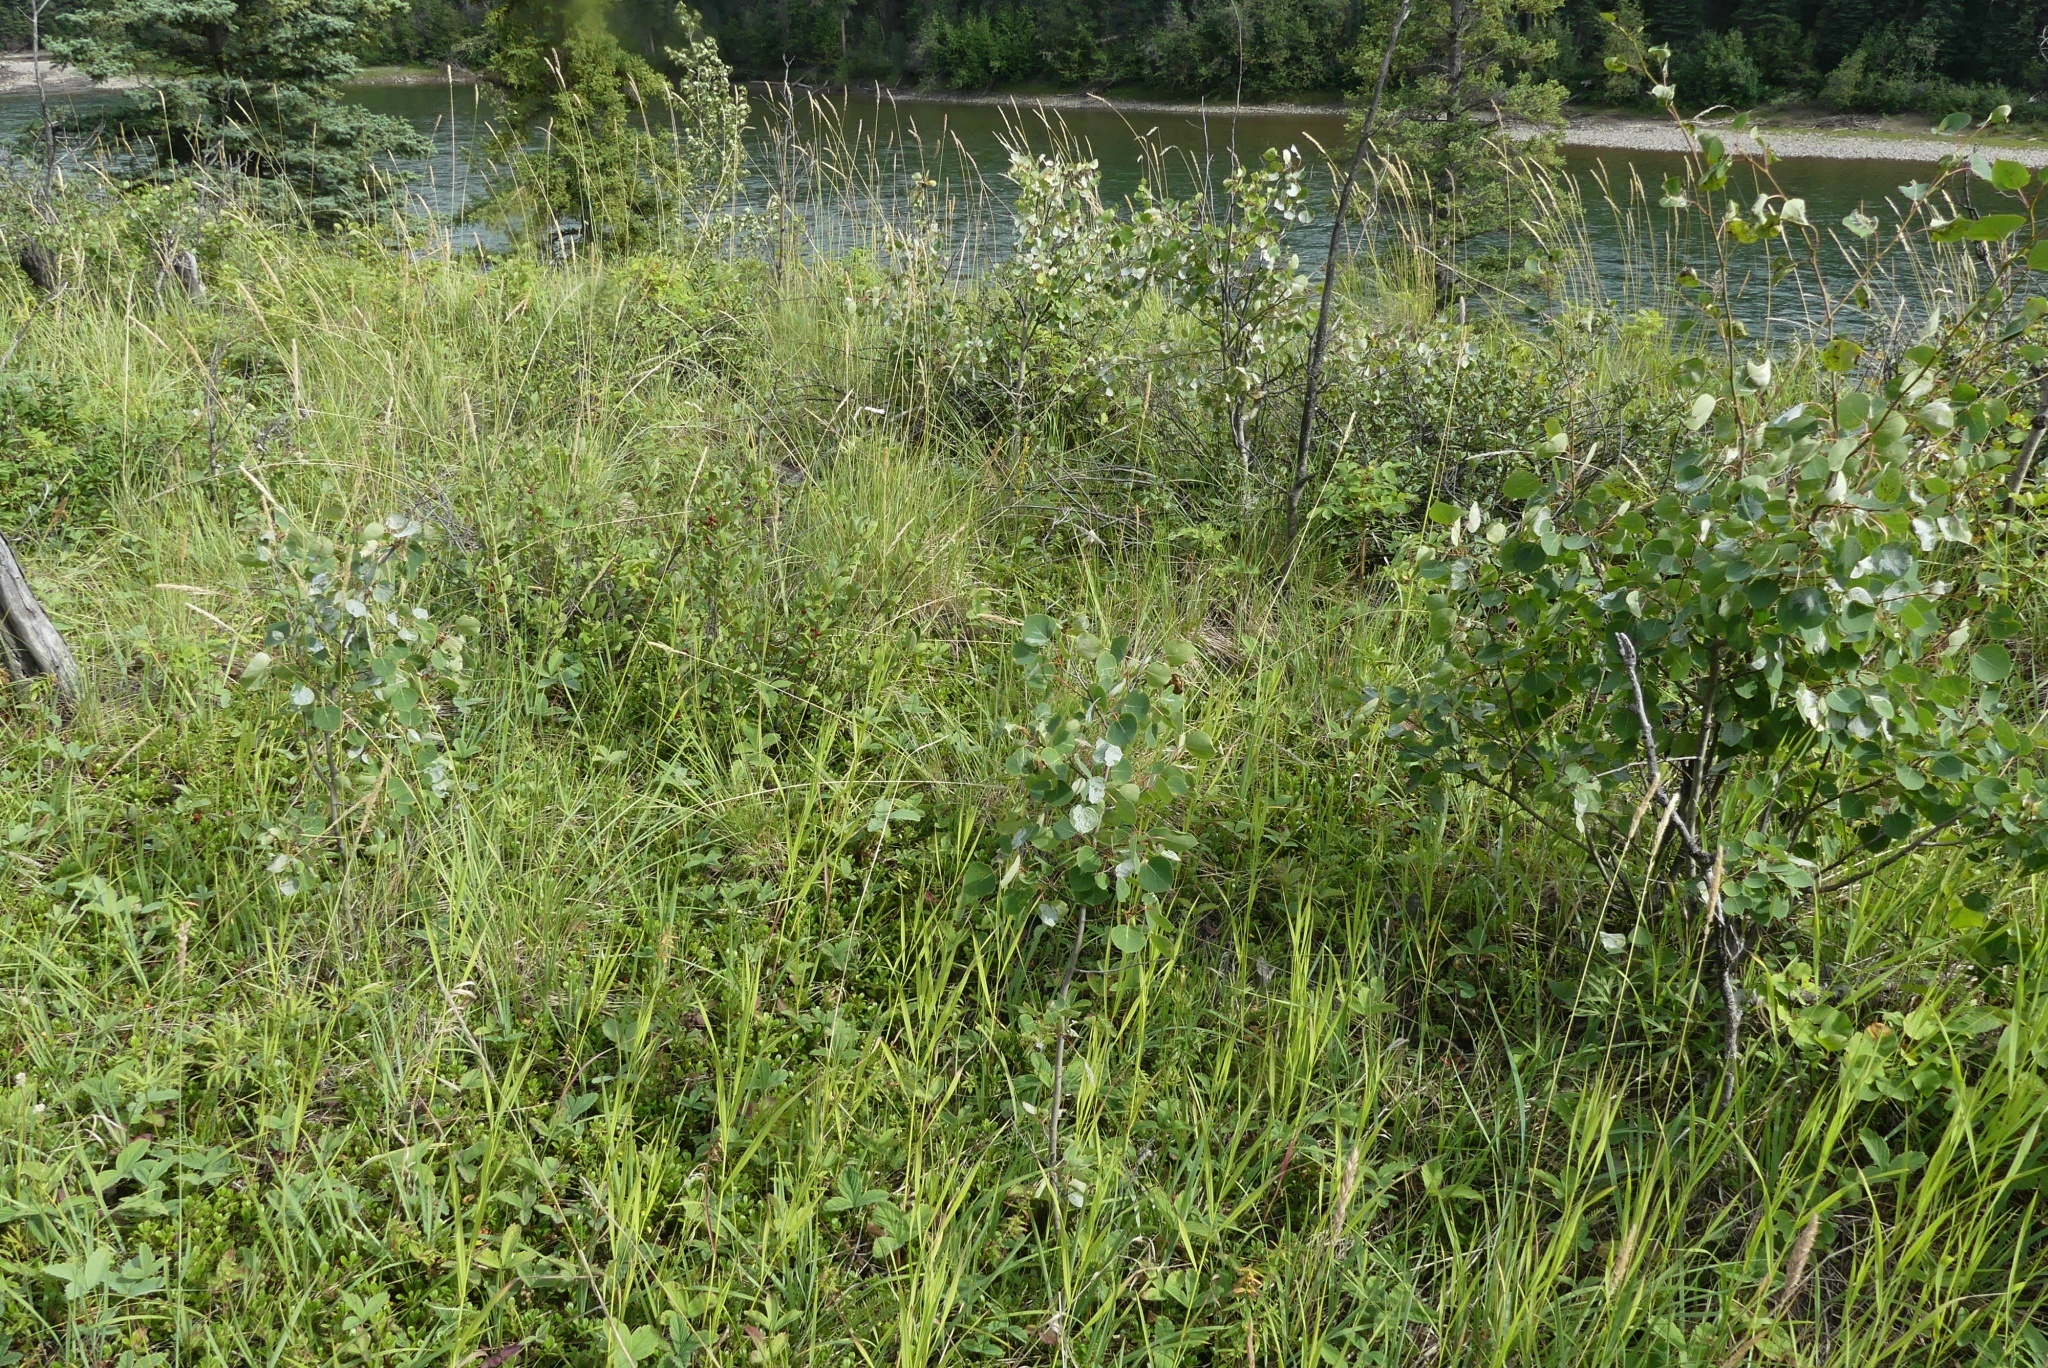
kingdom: Plantae
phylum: Tracheophyta
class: Magnoliopsida
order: Malpighiales
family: Salicaceae
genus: Populus
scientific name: Populus tremuloides
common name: Quaking aspen
